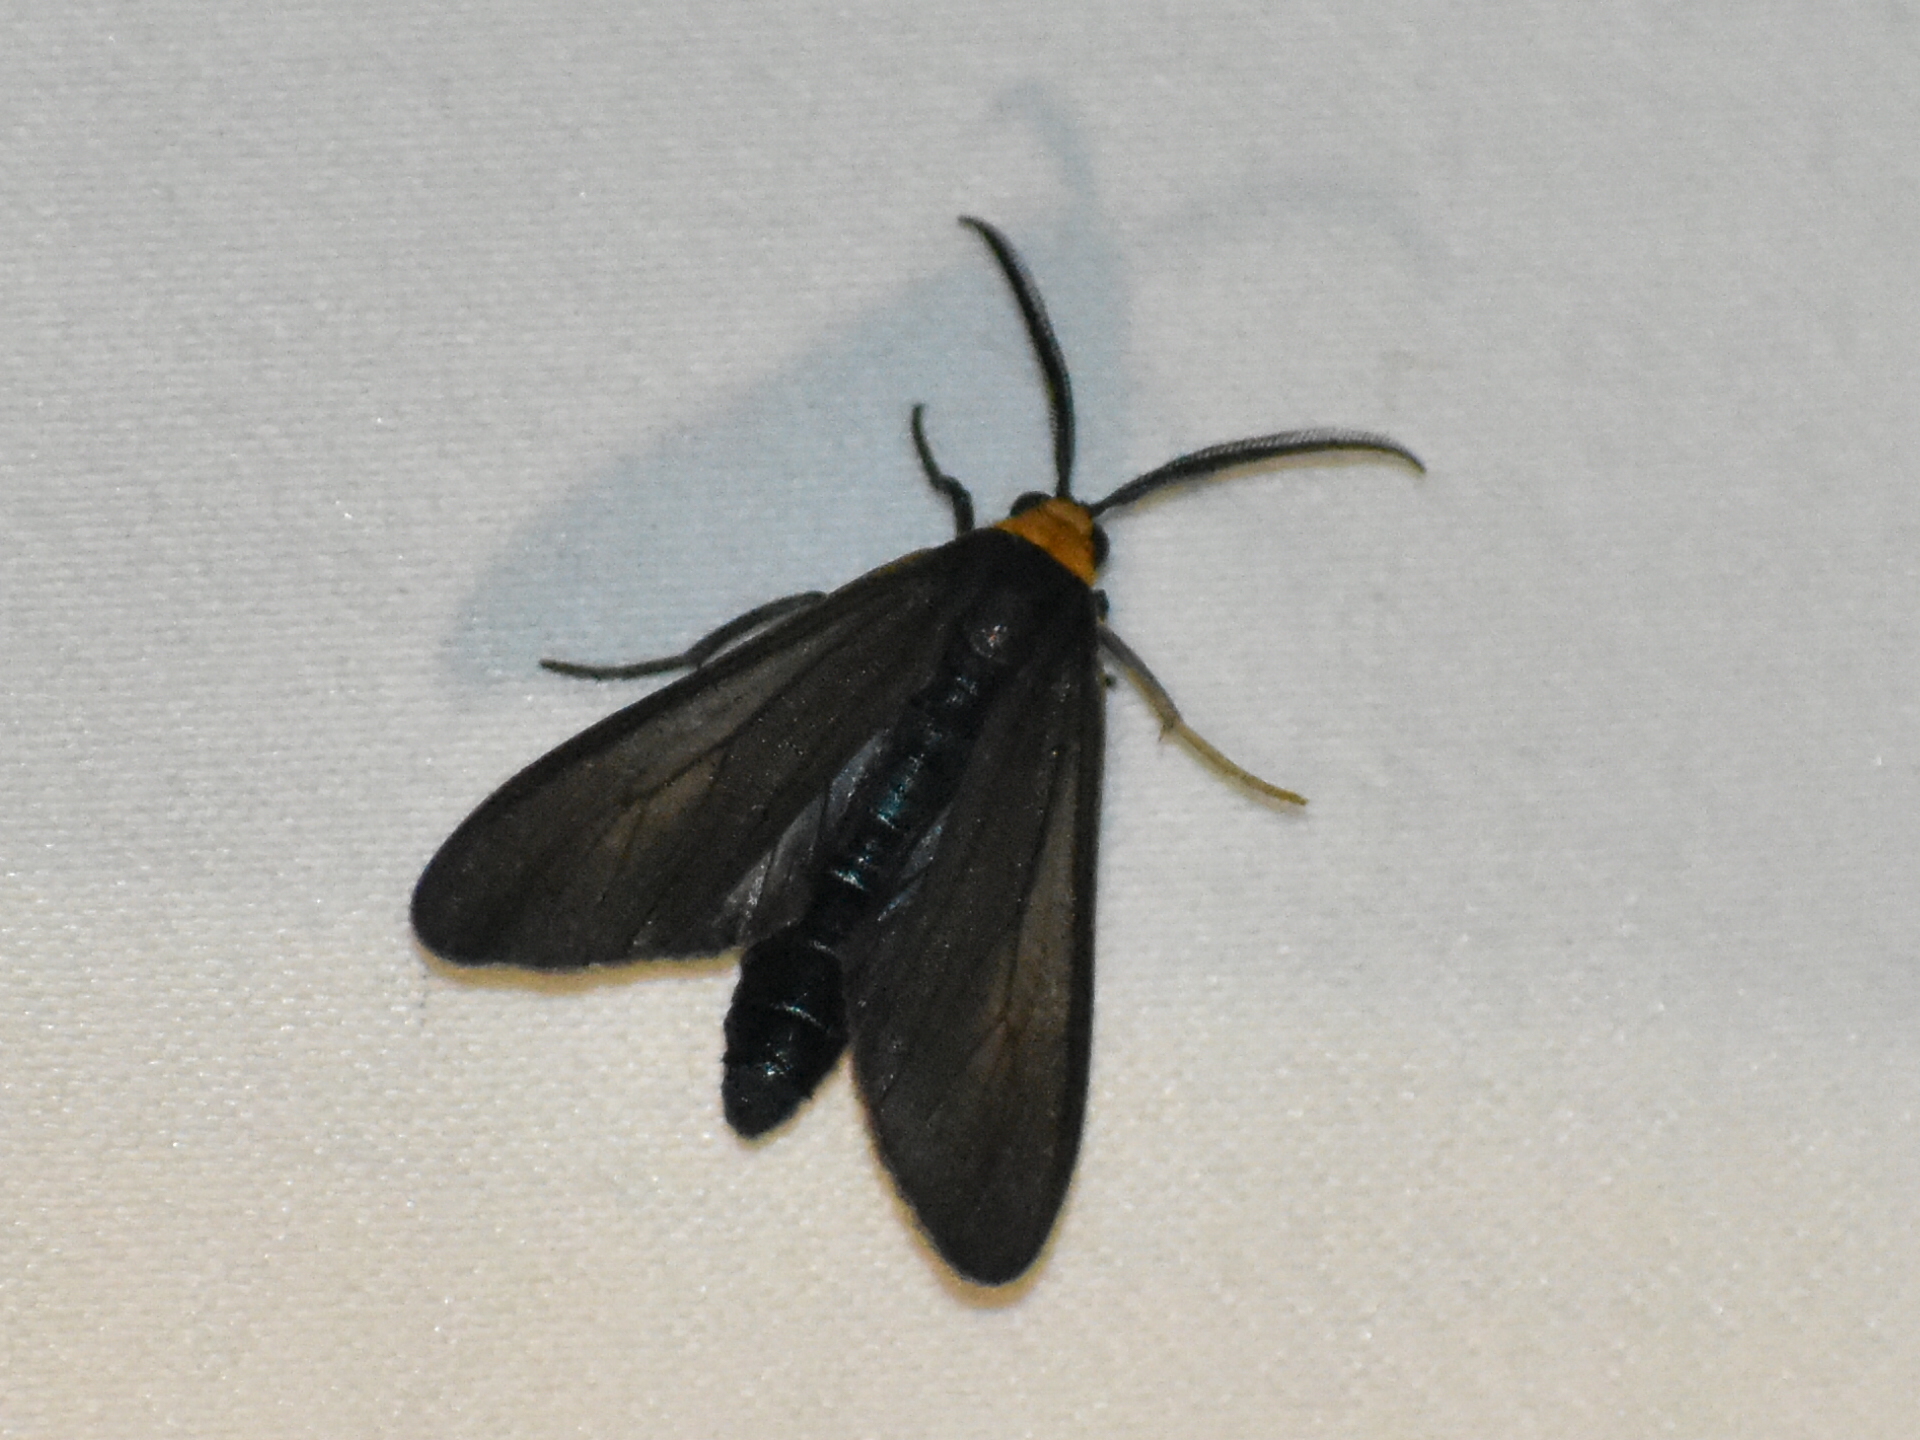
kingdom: Animalia
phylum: Arthropoda
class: Insecta
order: Lepidoptera
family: Erebidae
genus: Cisseps
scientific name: Cisseps fulvicollis
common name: Yellow-collared scape moth
